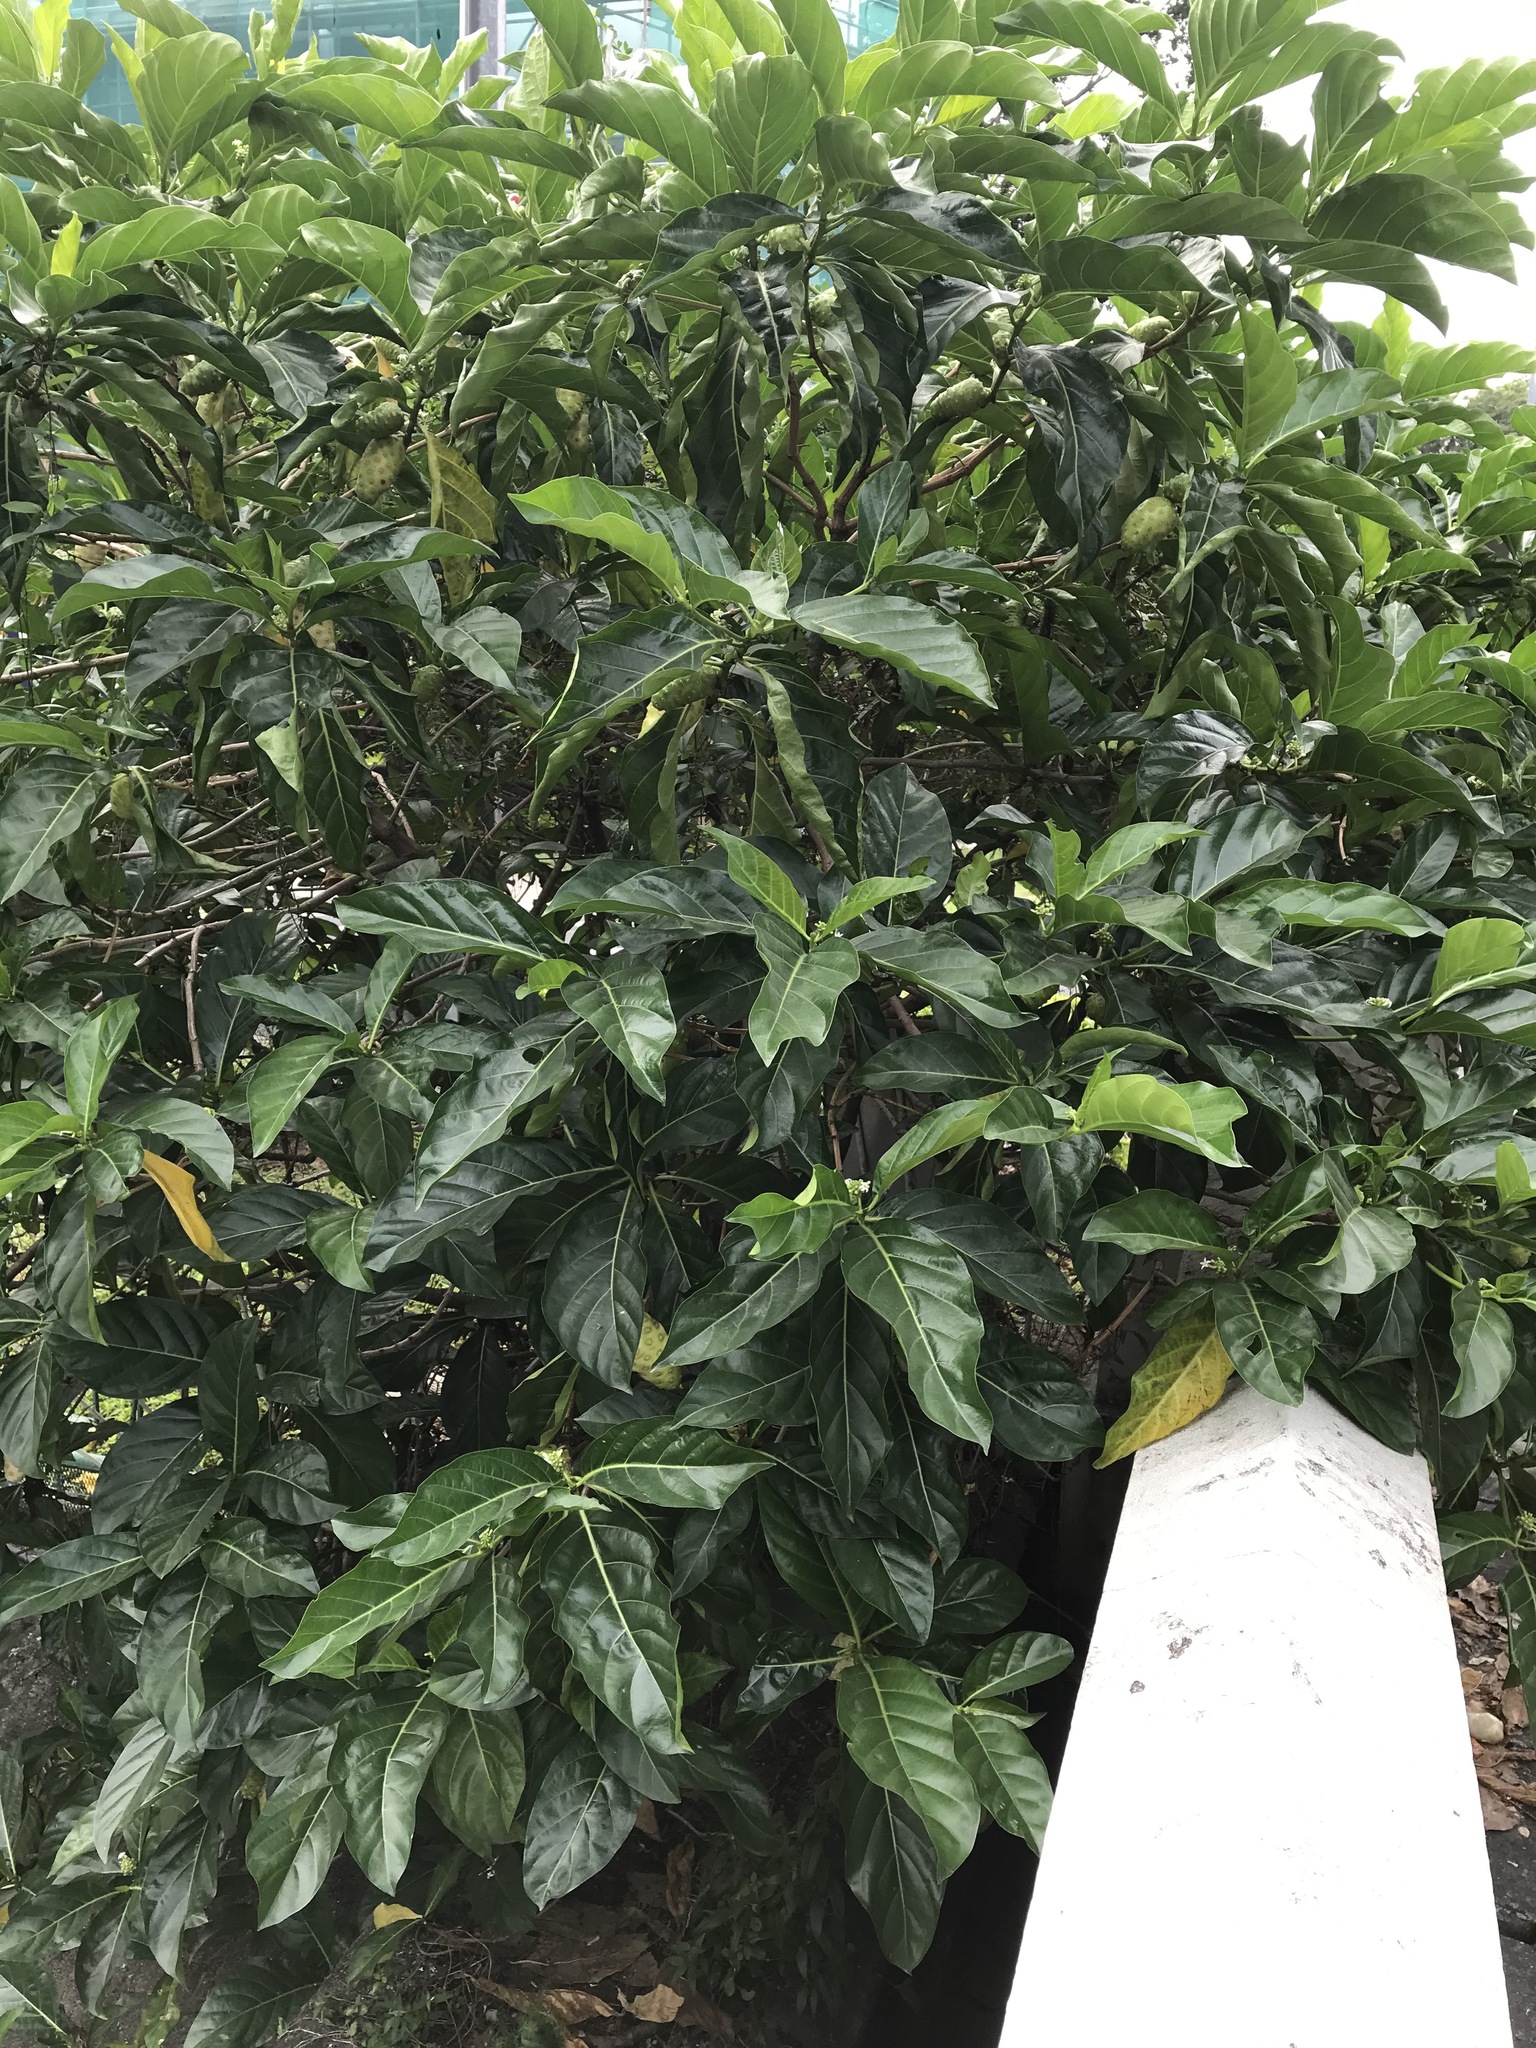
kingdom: Plantae
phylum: Tracheophyta
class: Magnoliopsida
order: Gentianales
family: Rubiaceae
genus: Morinda
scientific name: Morinda citrifolia
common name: Indian-mulberry
